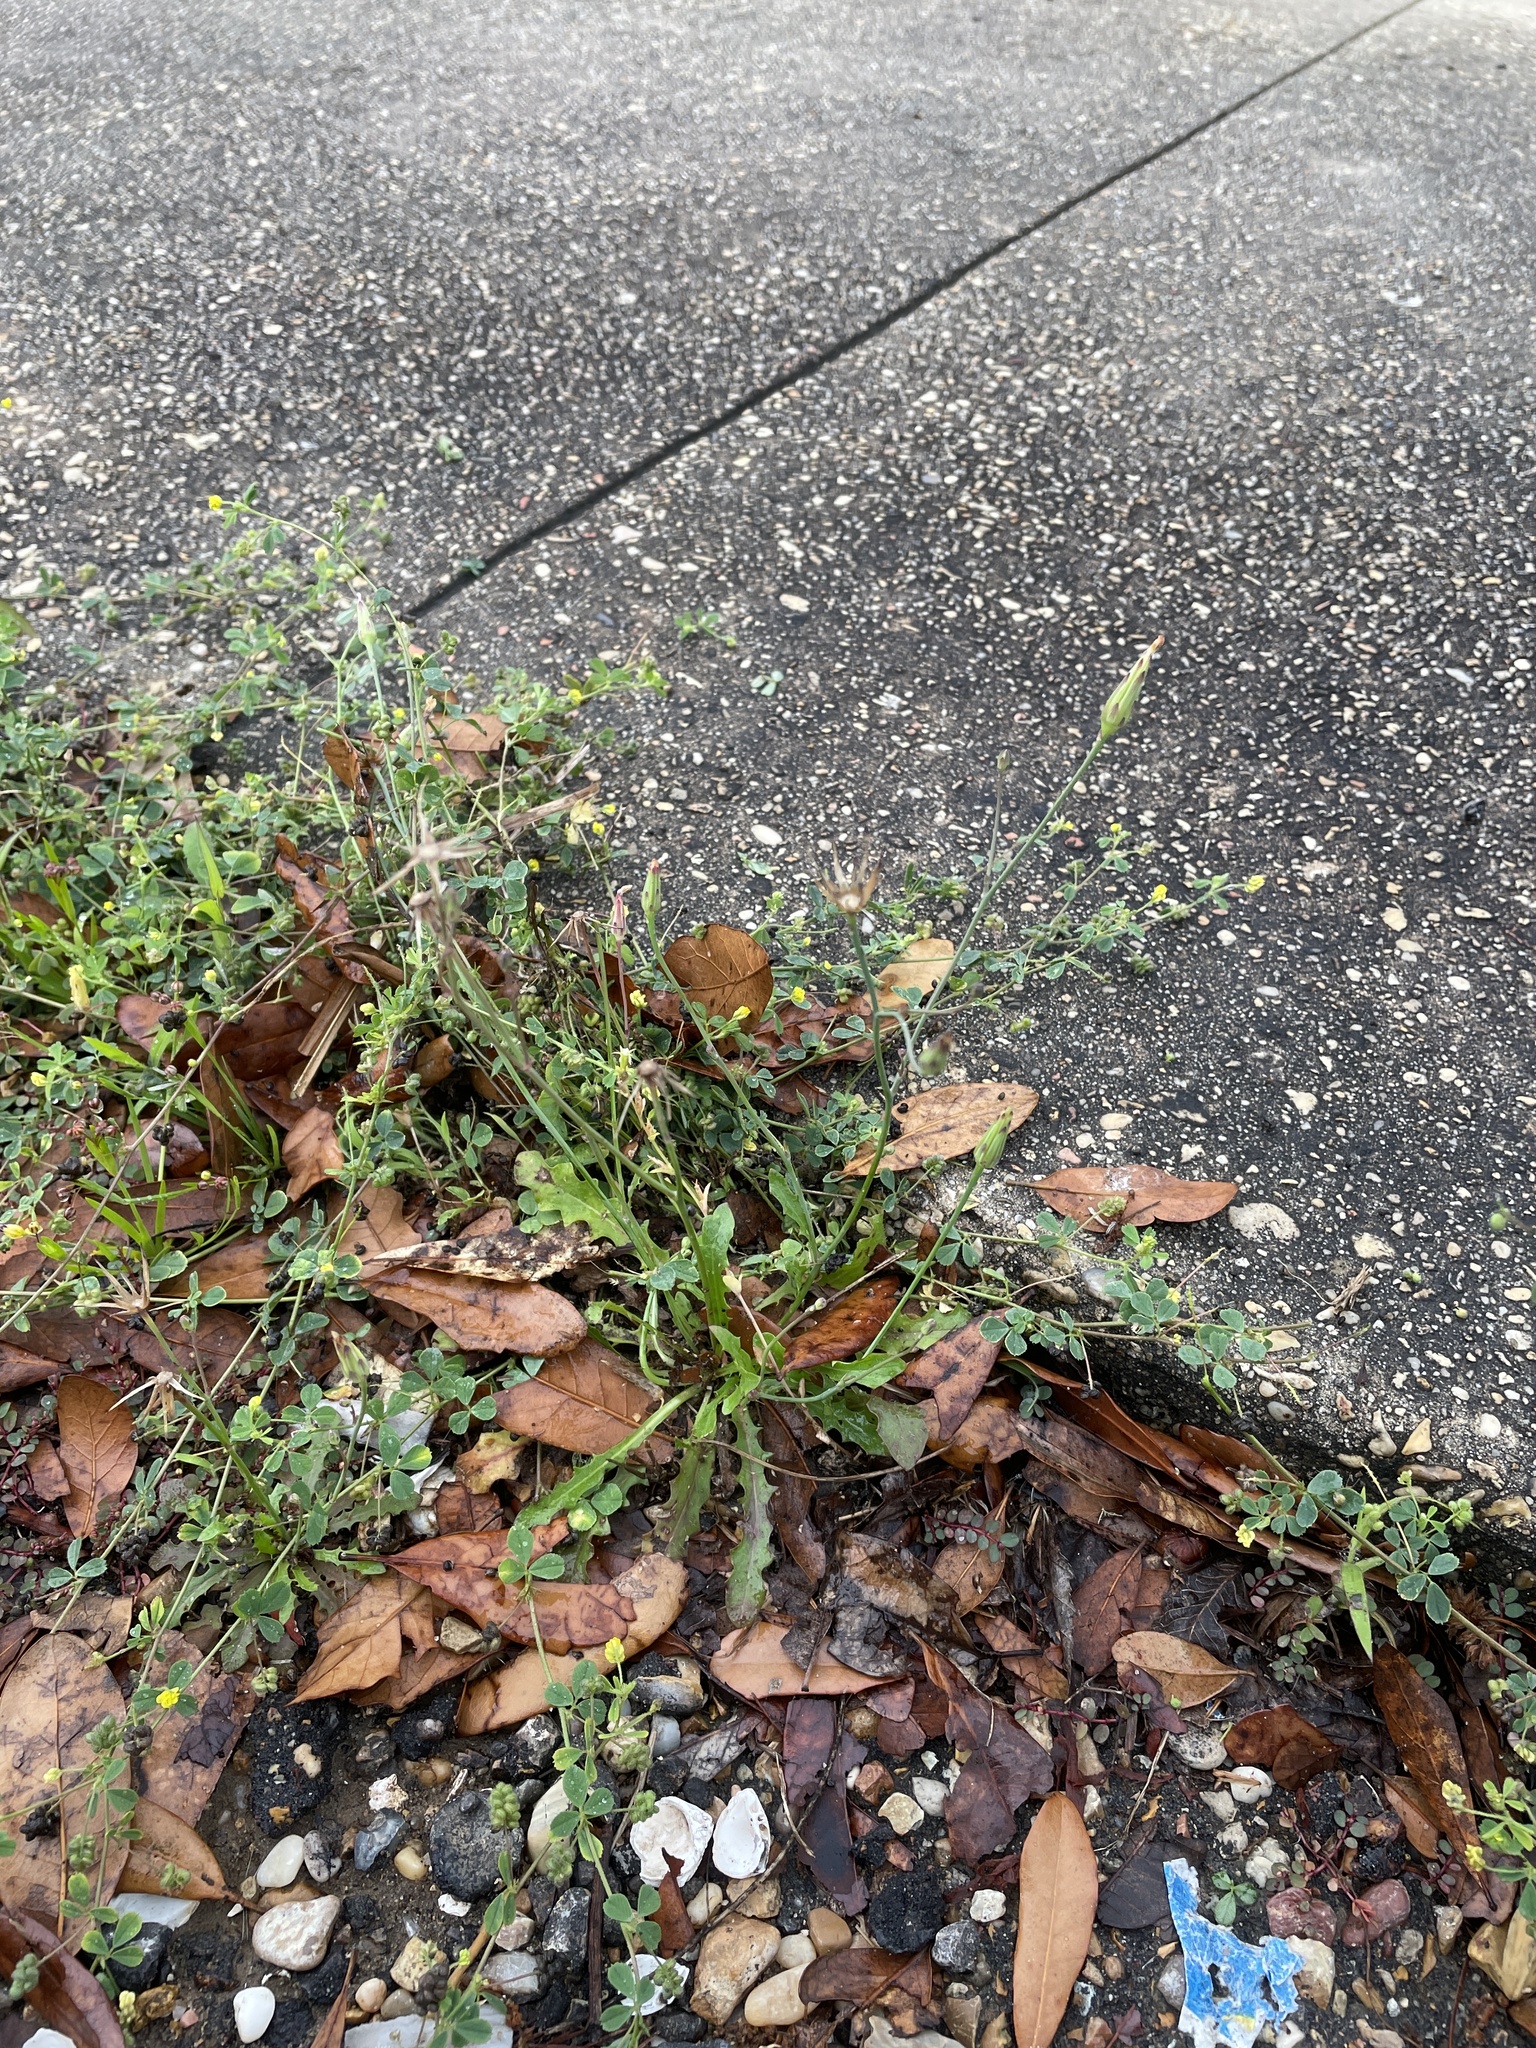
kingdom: Plantae
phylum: Tracheophyta
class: Magnoliopsida
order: Asterales
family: Asteraceae
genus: Hypochaeris
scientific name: Hypochaeris glabra
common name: Smooth catsear
